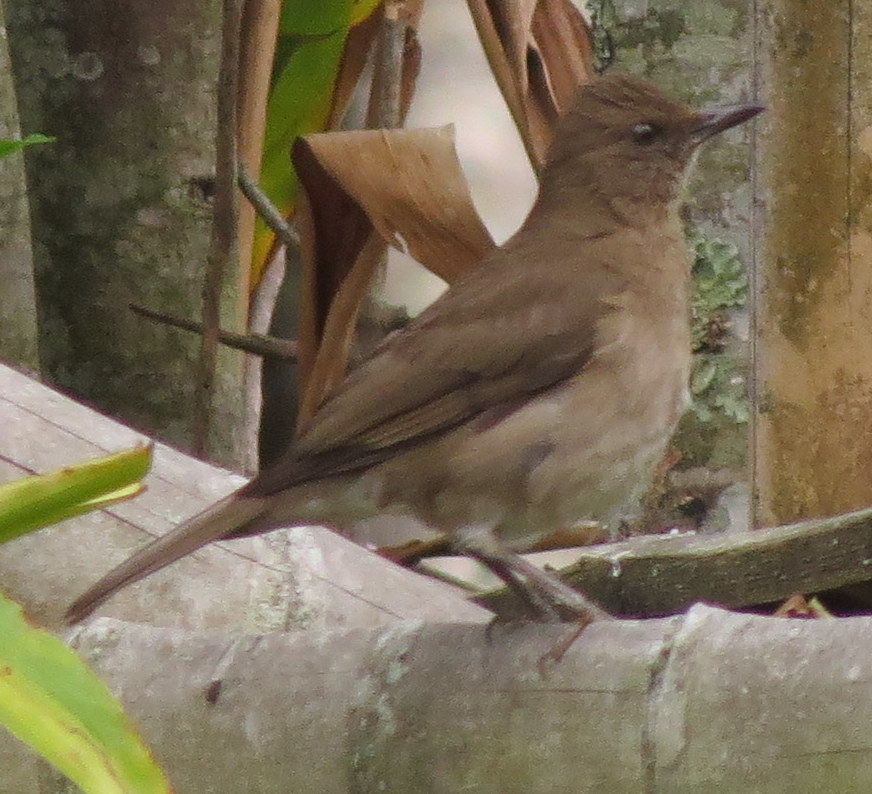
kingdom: Animalia
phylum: Chordata
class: Aves
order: Passeriformes
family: Turdidae
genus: Turdus
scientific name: Turdus ignobilis
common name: Black-billed thrush
